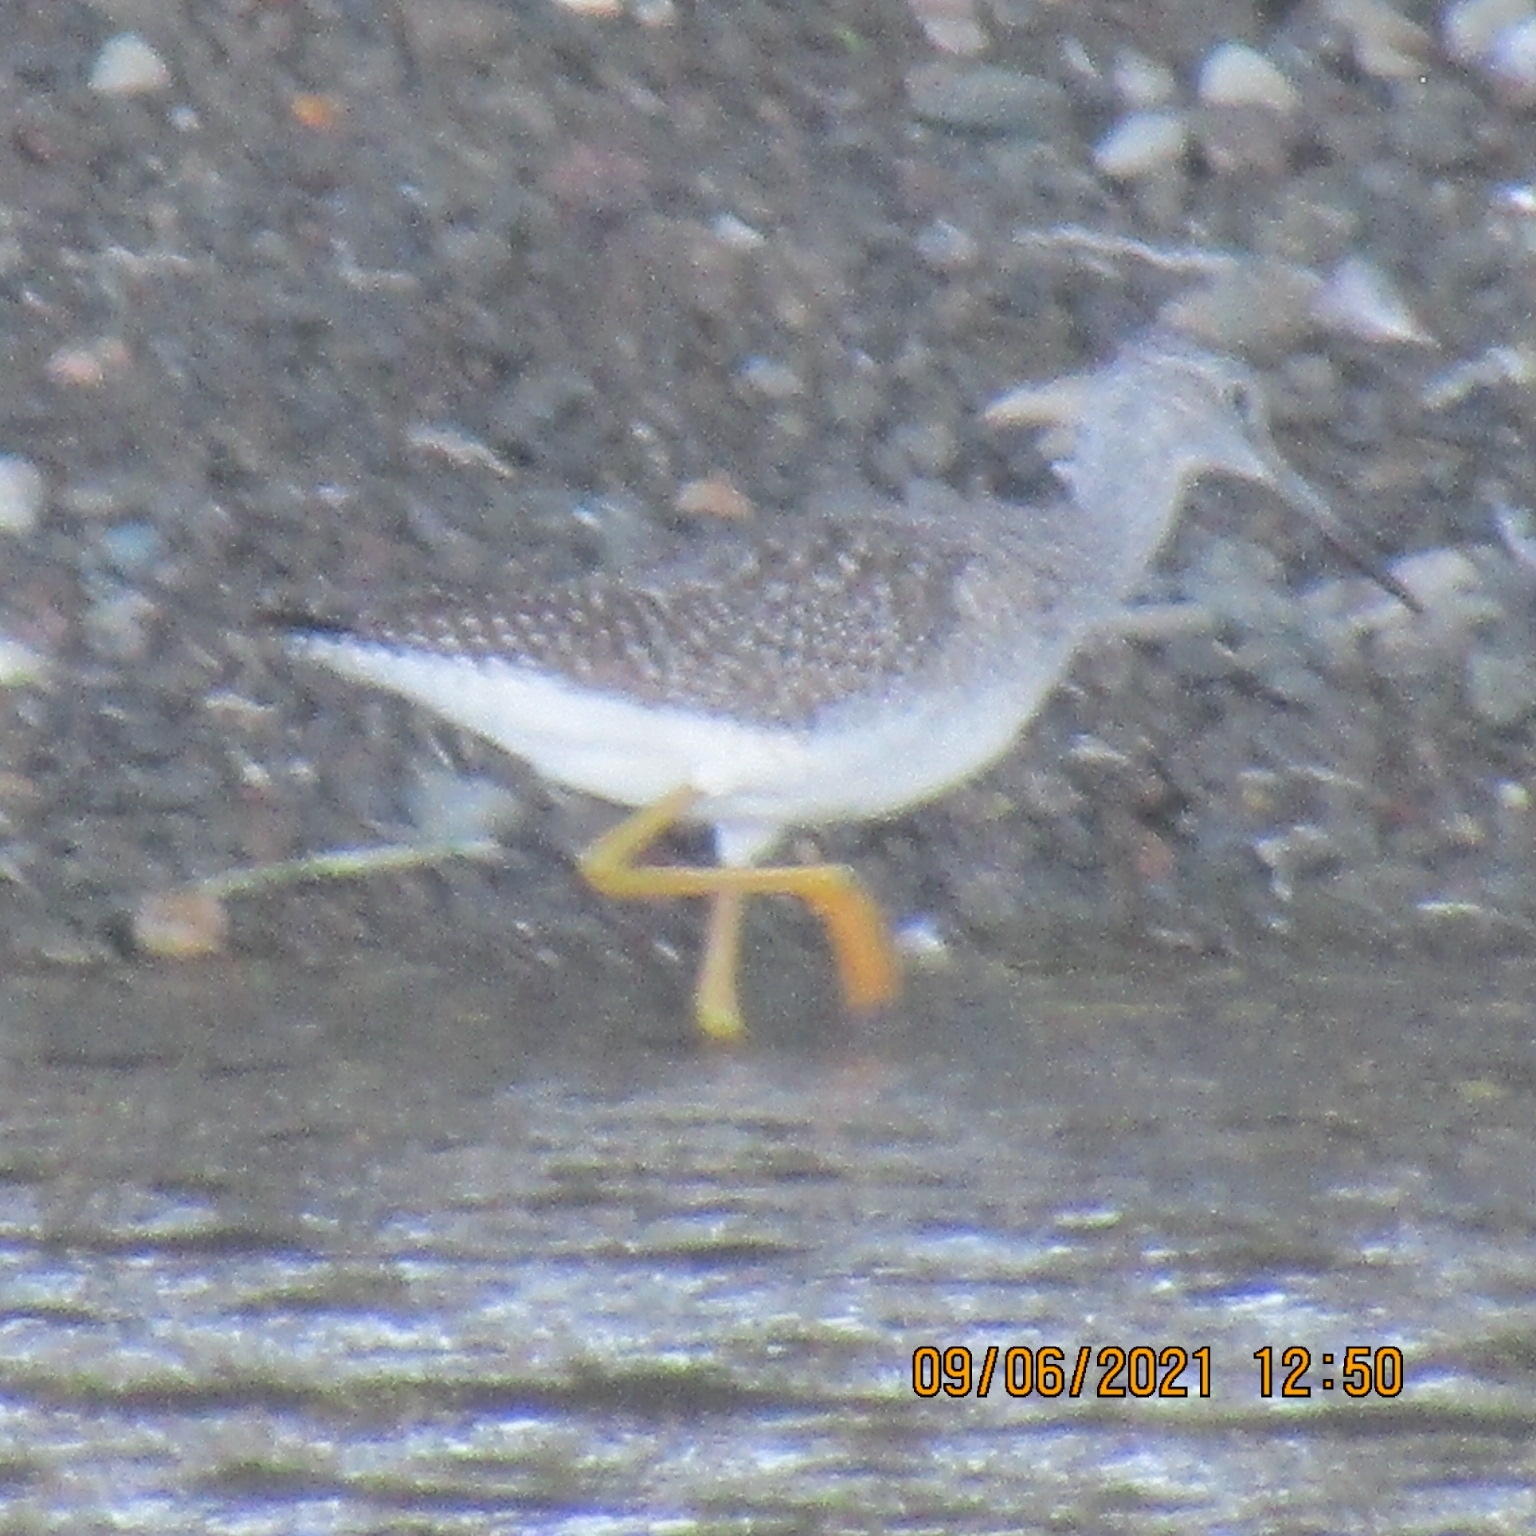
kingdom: Animalia
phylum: Chordata
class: Aves
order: Charadriiformes
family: Scolopacidae
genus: Tringa
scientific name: Tringa melanoleuca
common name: Greater yellowlegs
